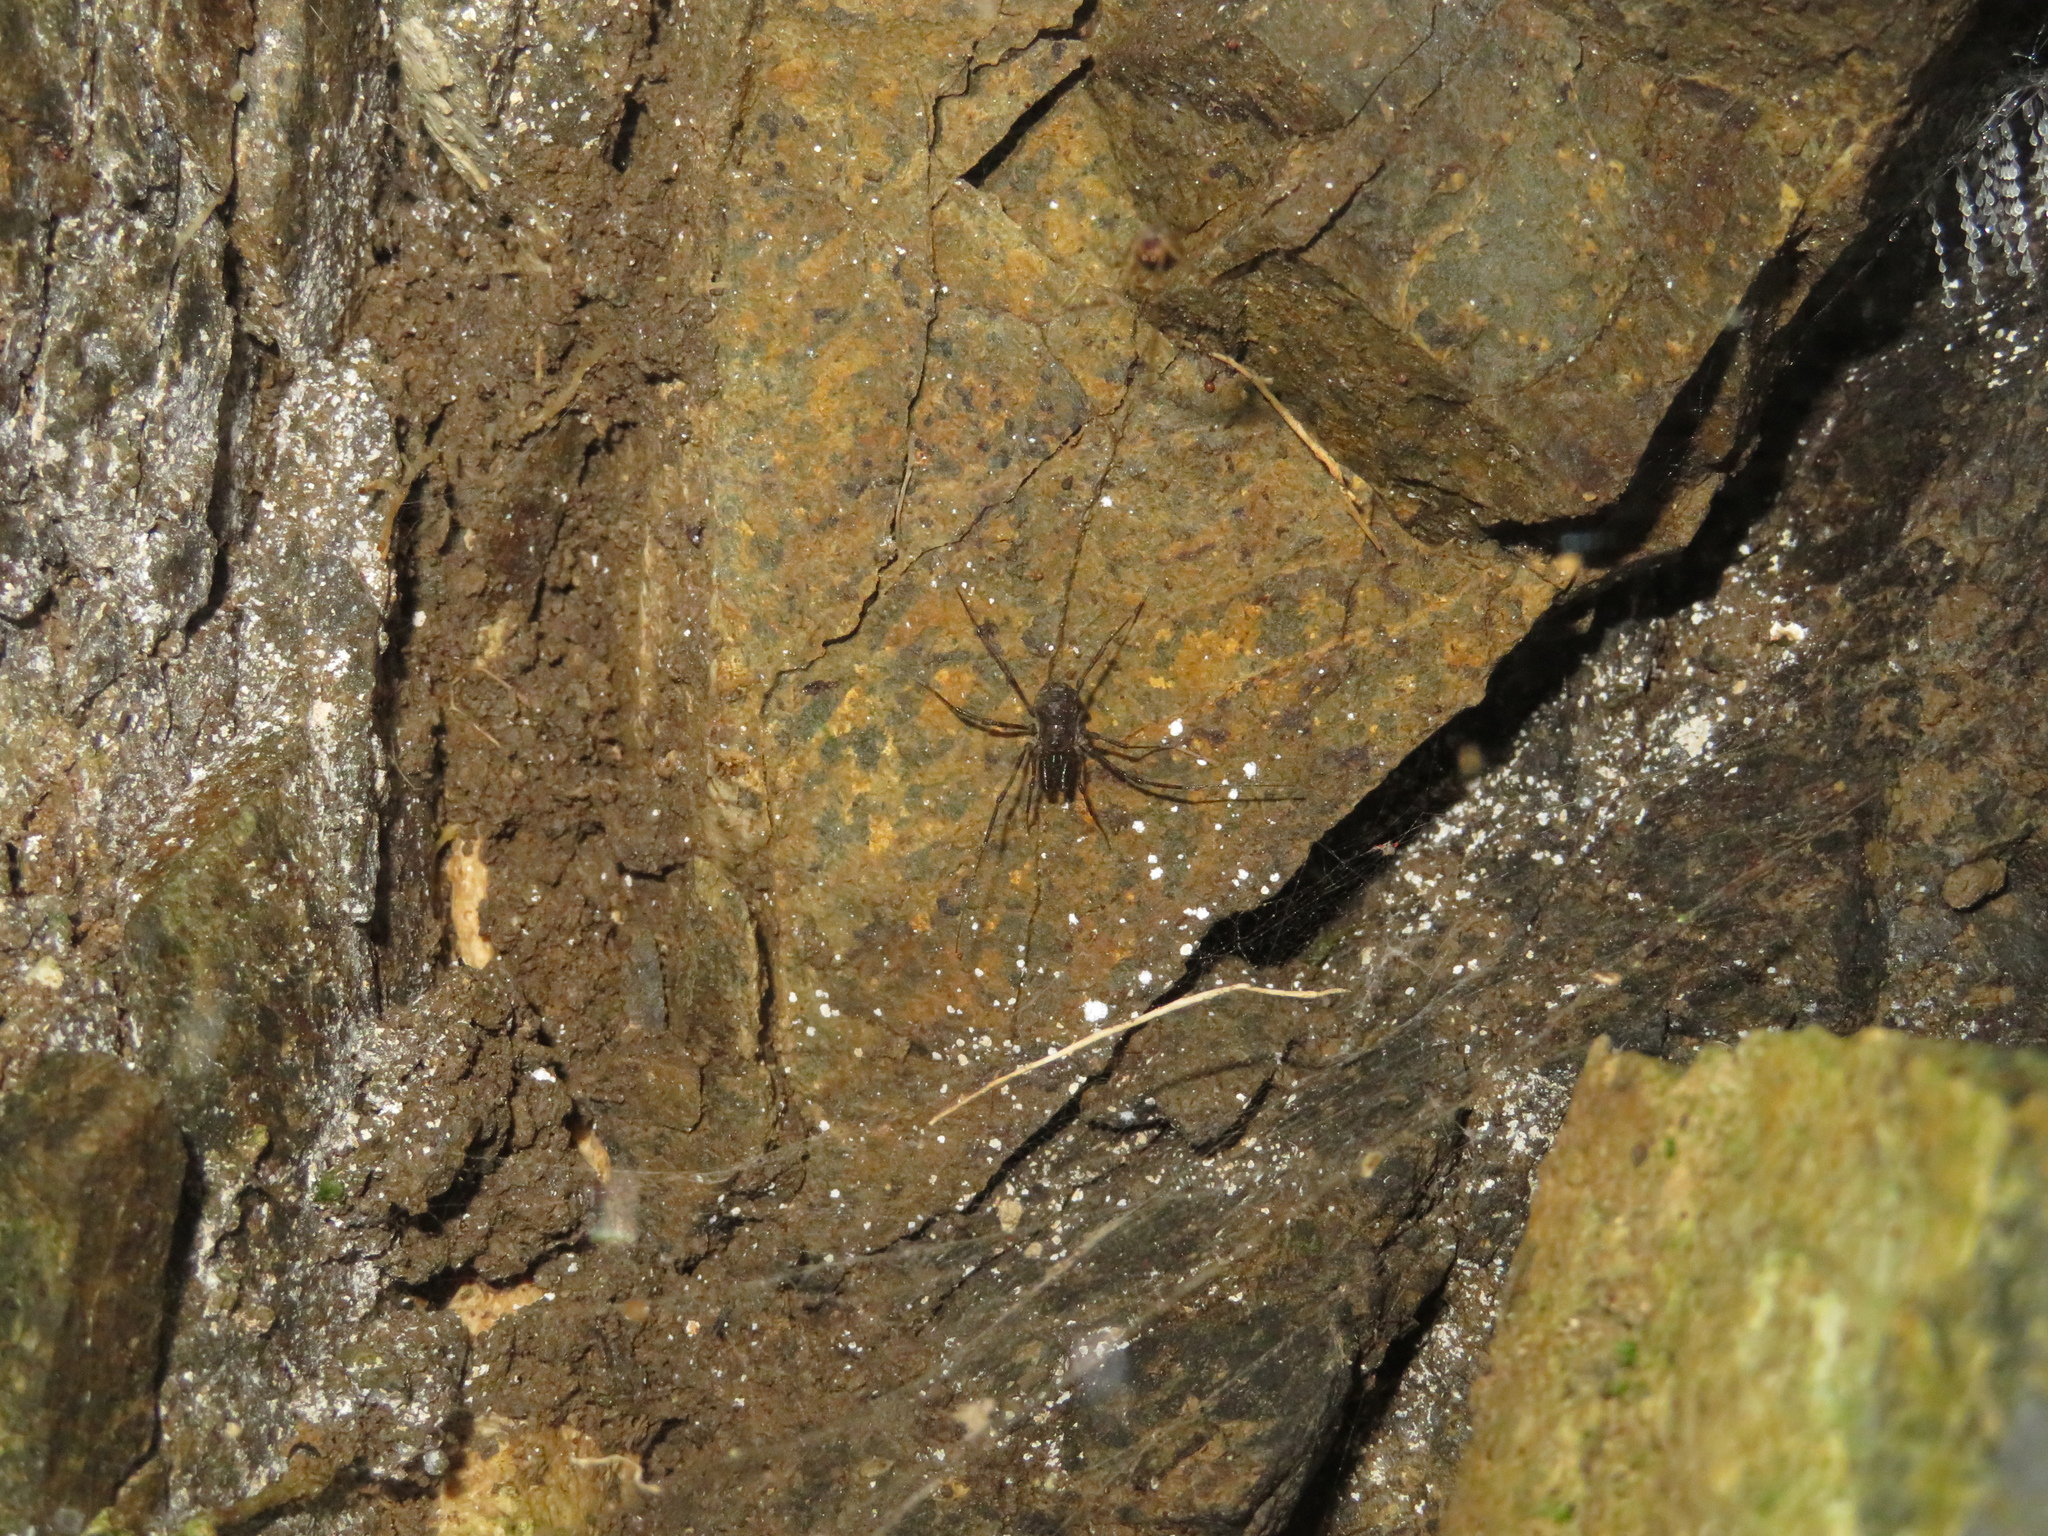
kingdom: Animalia
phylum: Arthropoda
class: Arachnida
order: Opiliones
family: Triaenonychidae
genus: Hendea
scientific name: Hendea myersi
